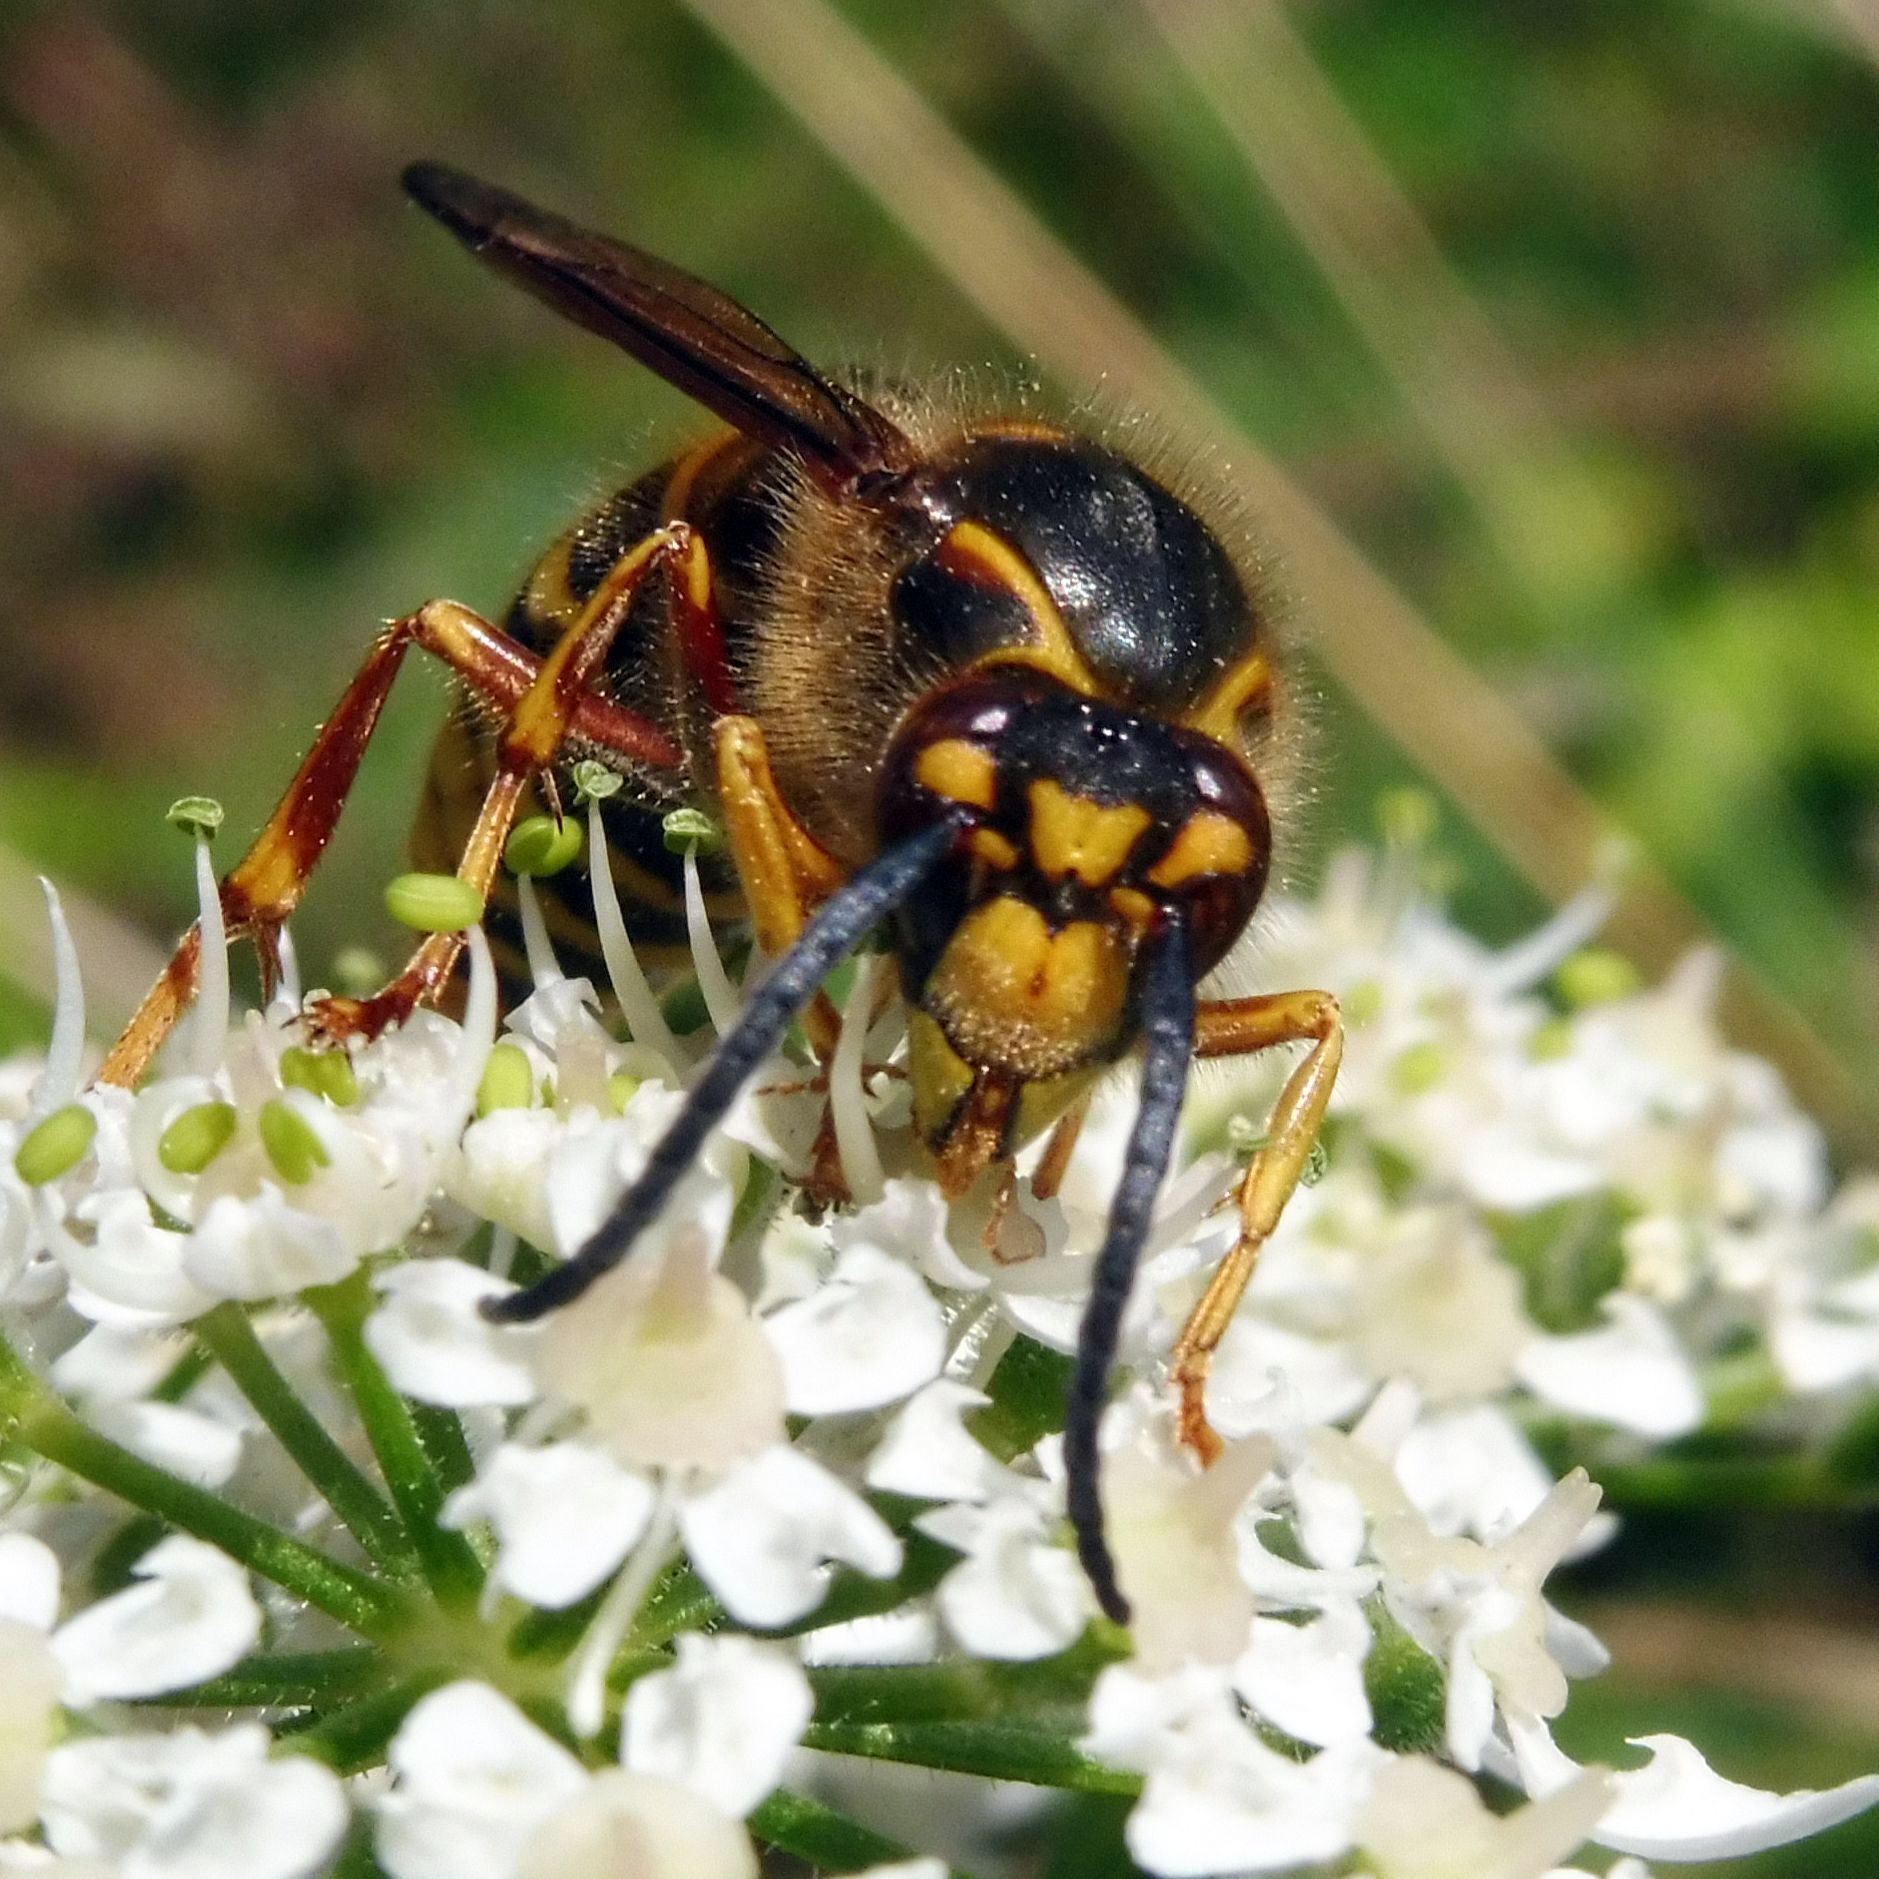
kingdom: Animalia
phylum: Arthropoda
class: Insecta
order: Hymenoptera
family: Vespidae
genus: Dolichovespula
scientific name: Dolichovespula media
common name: Median wasp
